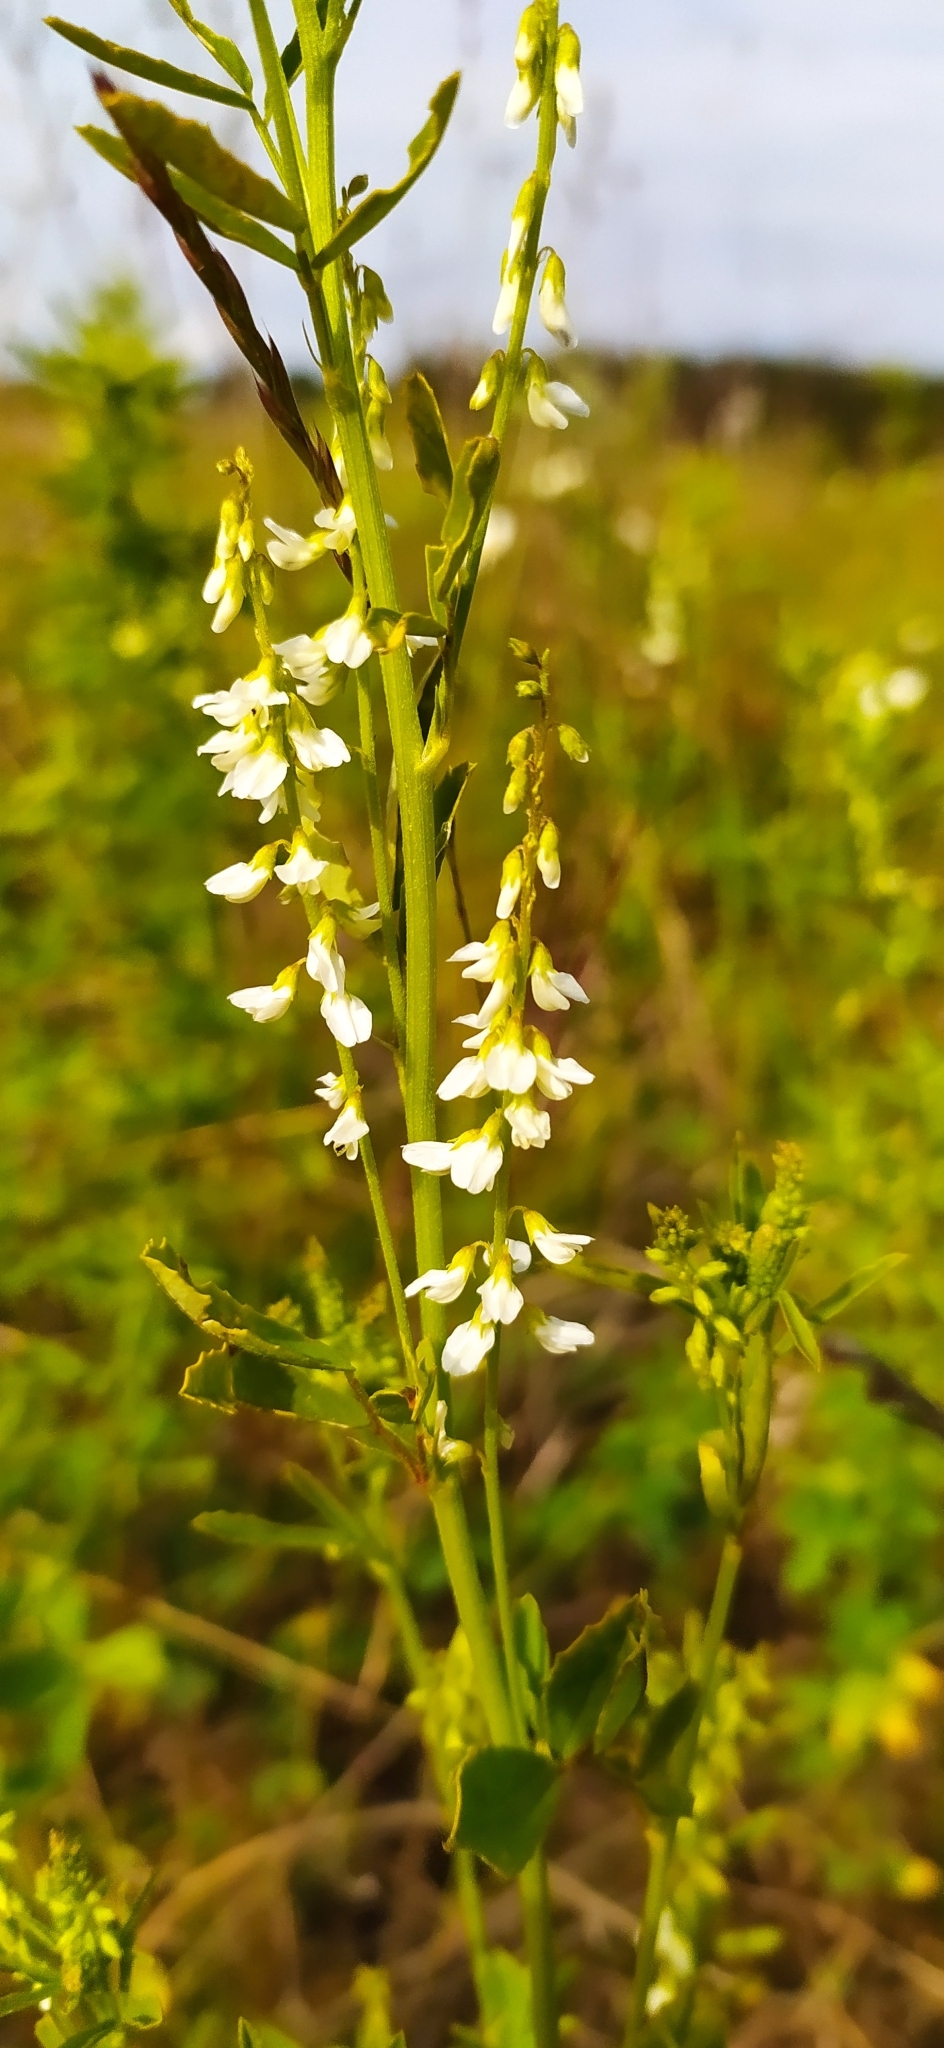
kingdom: Plantae
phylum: Tracheophyta
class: Magnoliopsida
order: Fabales
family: Fabaceae
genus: Melilotus
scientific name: Melilotus albus
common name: White melilot
